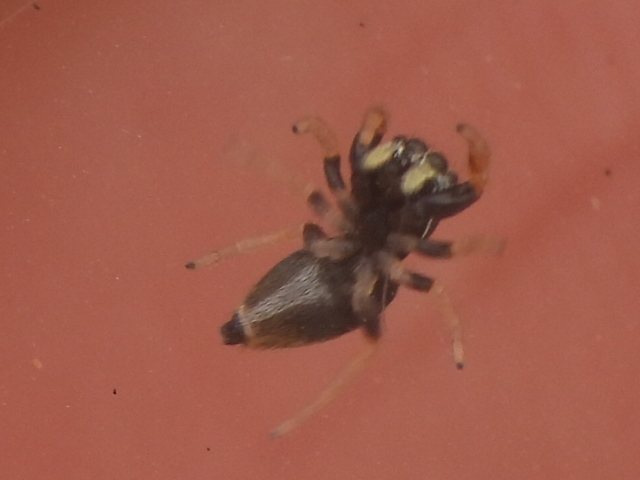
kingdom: Animalia
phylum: Arthropoda
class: Arachnida
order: Araneae
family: Salticidae
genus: Sassacus
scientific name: Sassacus vitis
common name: Jumping spiders
